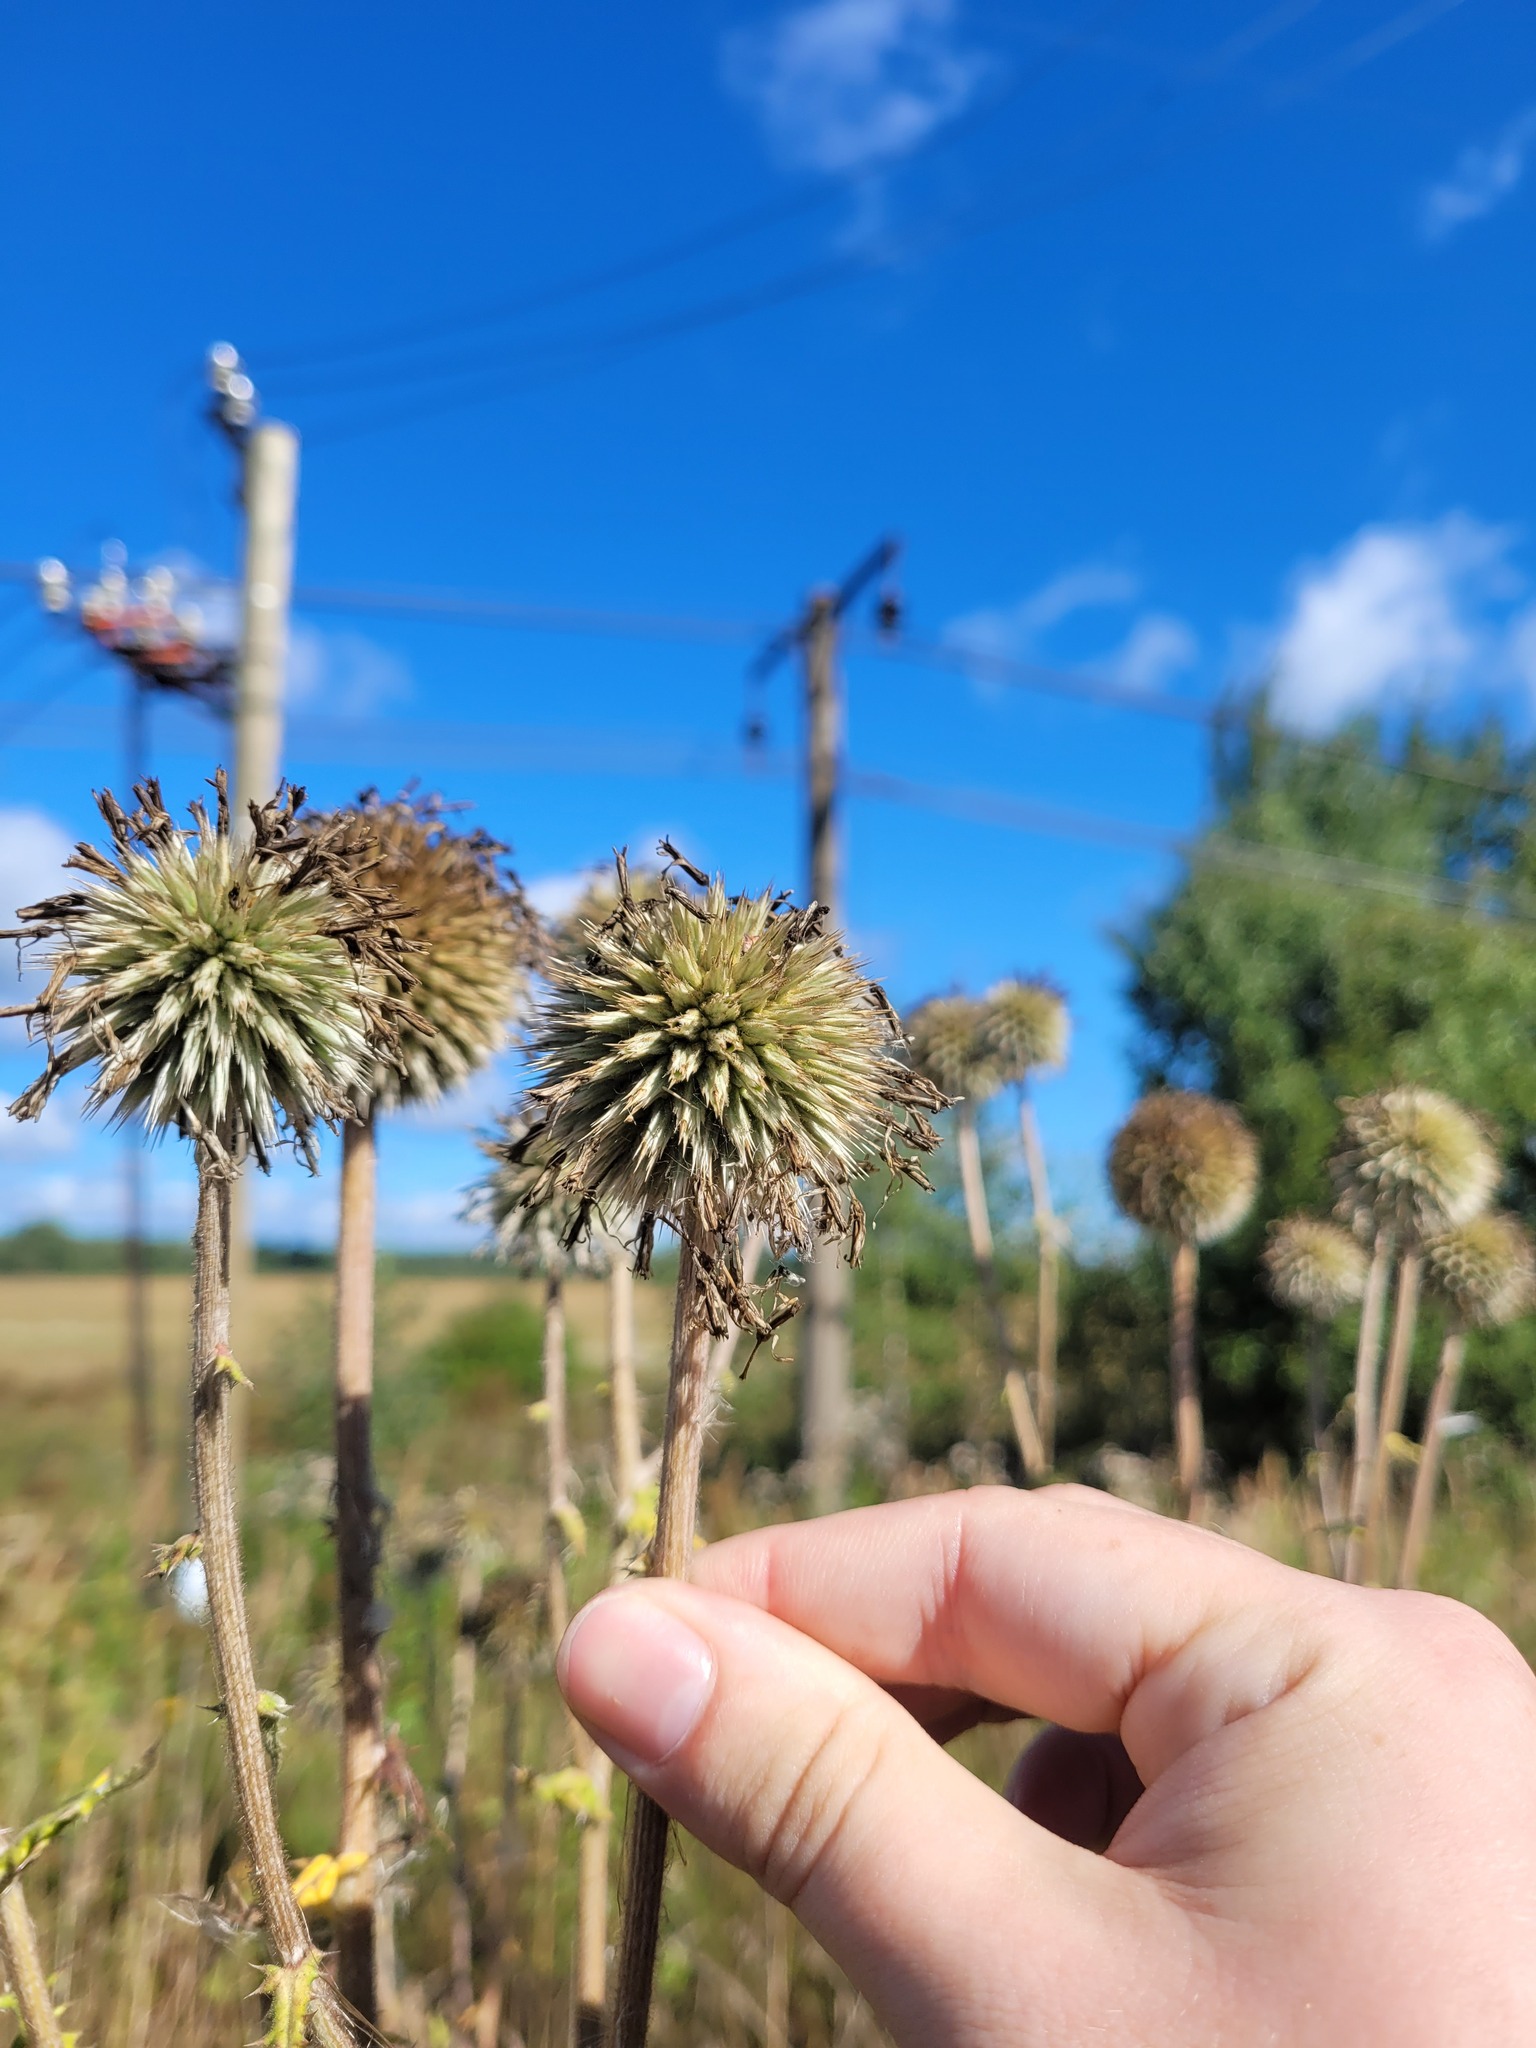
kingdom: Plantae
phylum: Tracheophyta
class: Magnoliopsida
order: Asterales
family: Asteraceae
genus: Echinops
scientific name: Echinops sphaerocephalus
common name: Glandular globe-thistle
